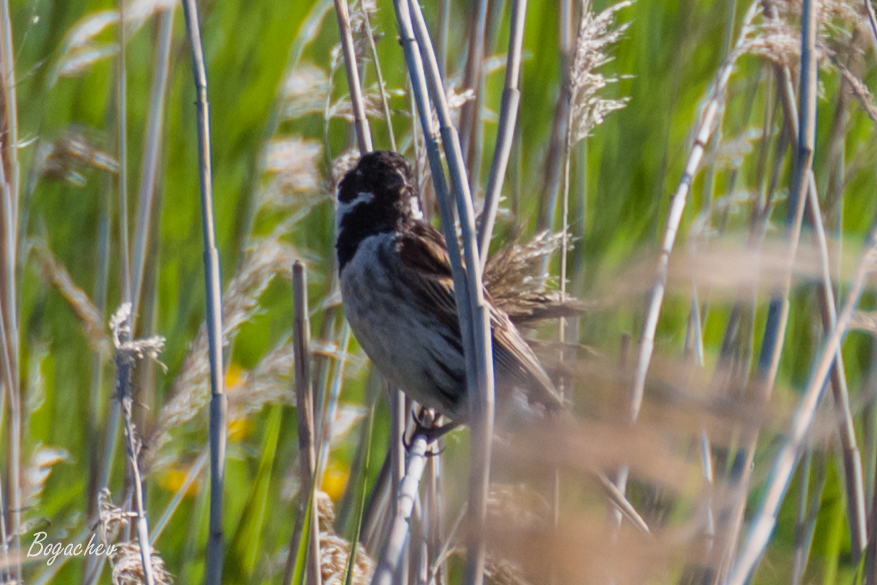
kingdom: Animalia
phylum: Chordata
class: Aves
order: Passeriformes
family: Emberizidae
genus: Emberiza
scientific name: Emberiza schoeniclus
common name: Reed bunting
